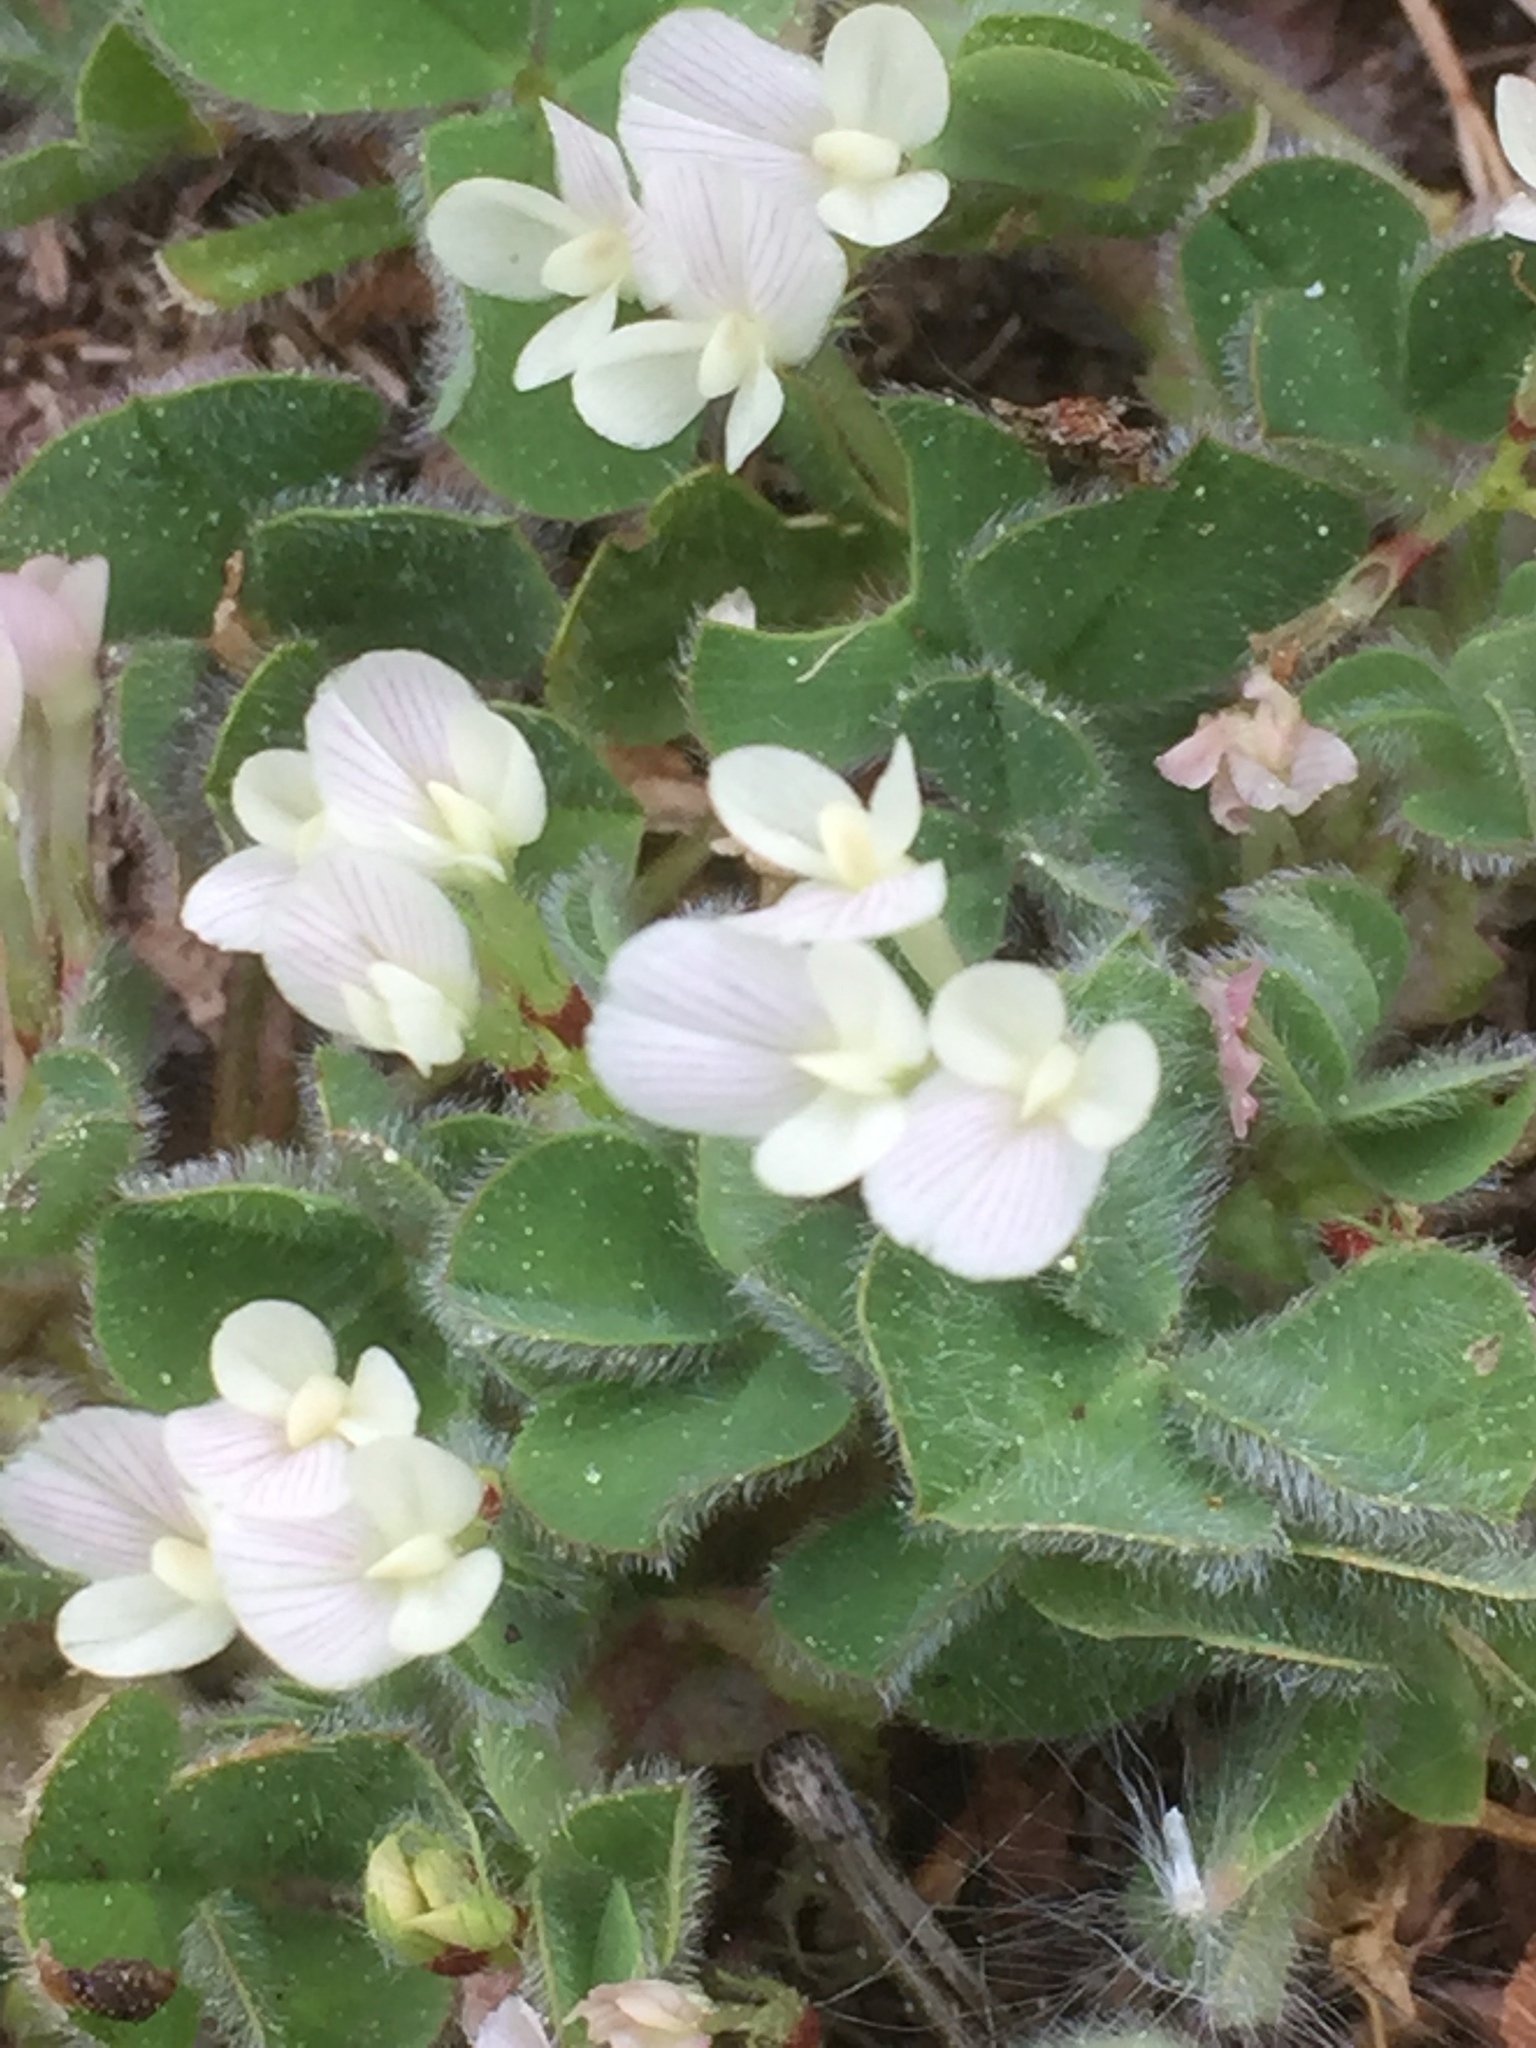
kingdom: Plantae
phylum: Tracheophyta
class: Magnoliopsida
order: Fabales
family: Fabaceae
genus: Trifolium
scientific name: Trifolium subterraneum
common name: Subterranean clover
